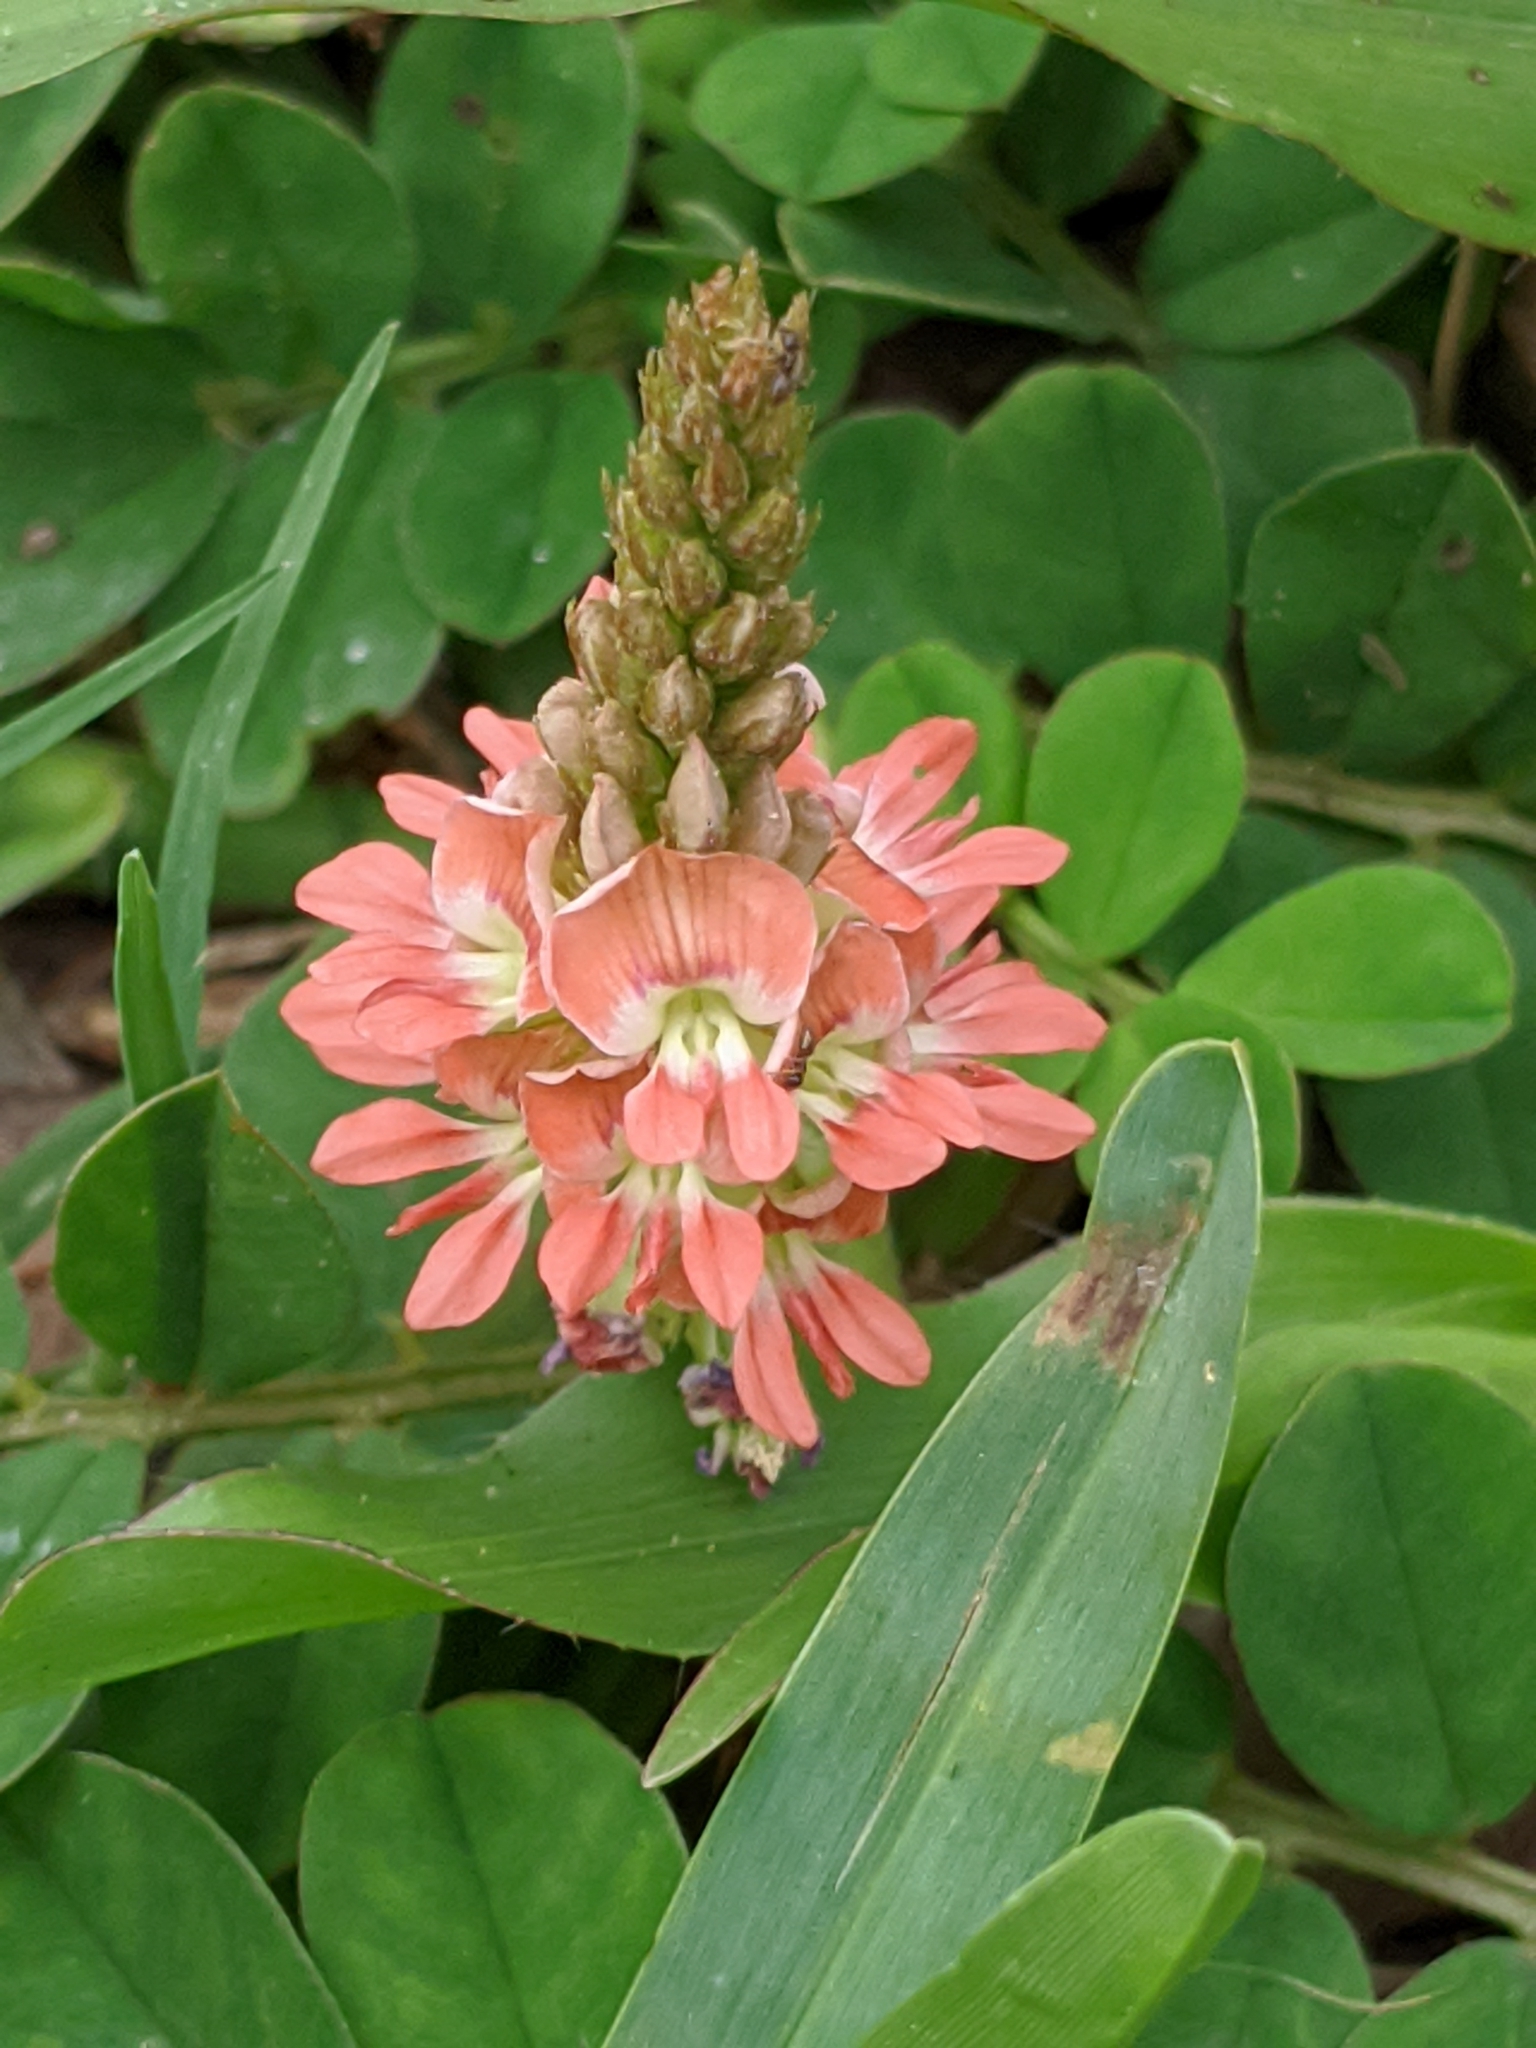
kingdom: Plantae
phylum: Tracheophyta
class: Magnoliopsida
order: Fabales
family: Fabaceae
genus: Indigofera
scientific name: Indigofera spicata
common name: Creeping indigo
